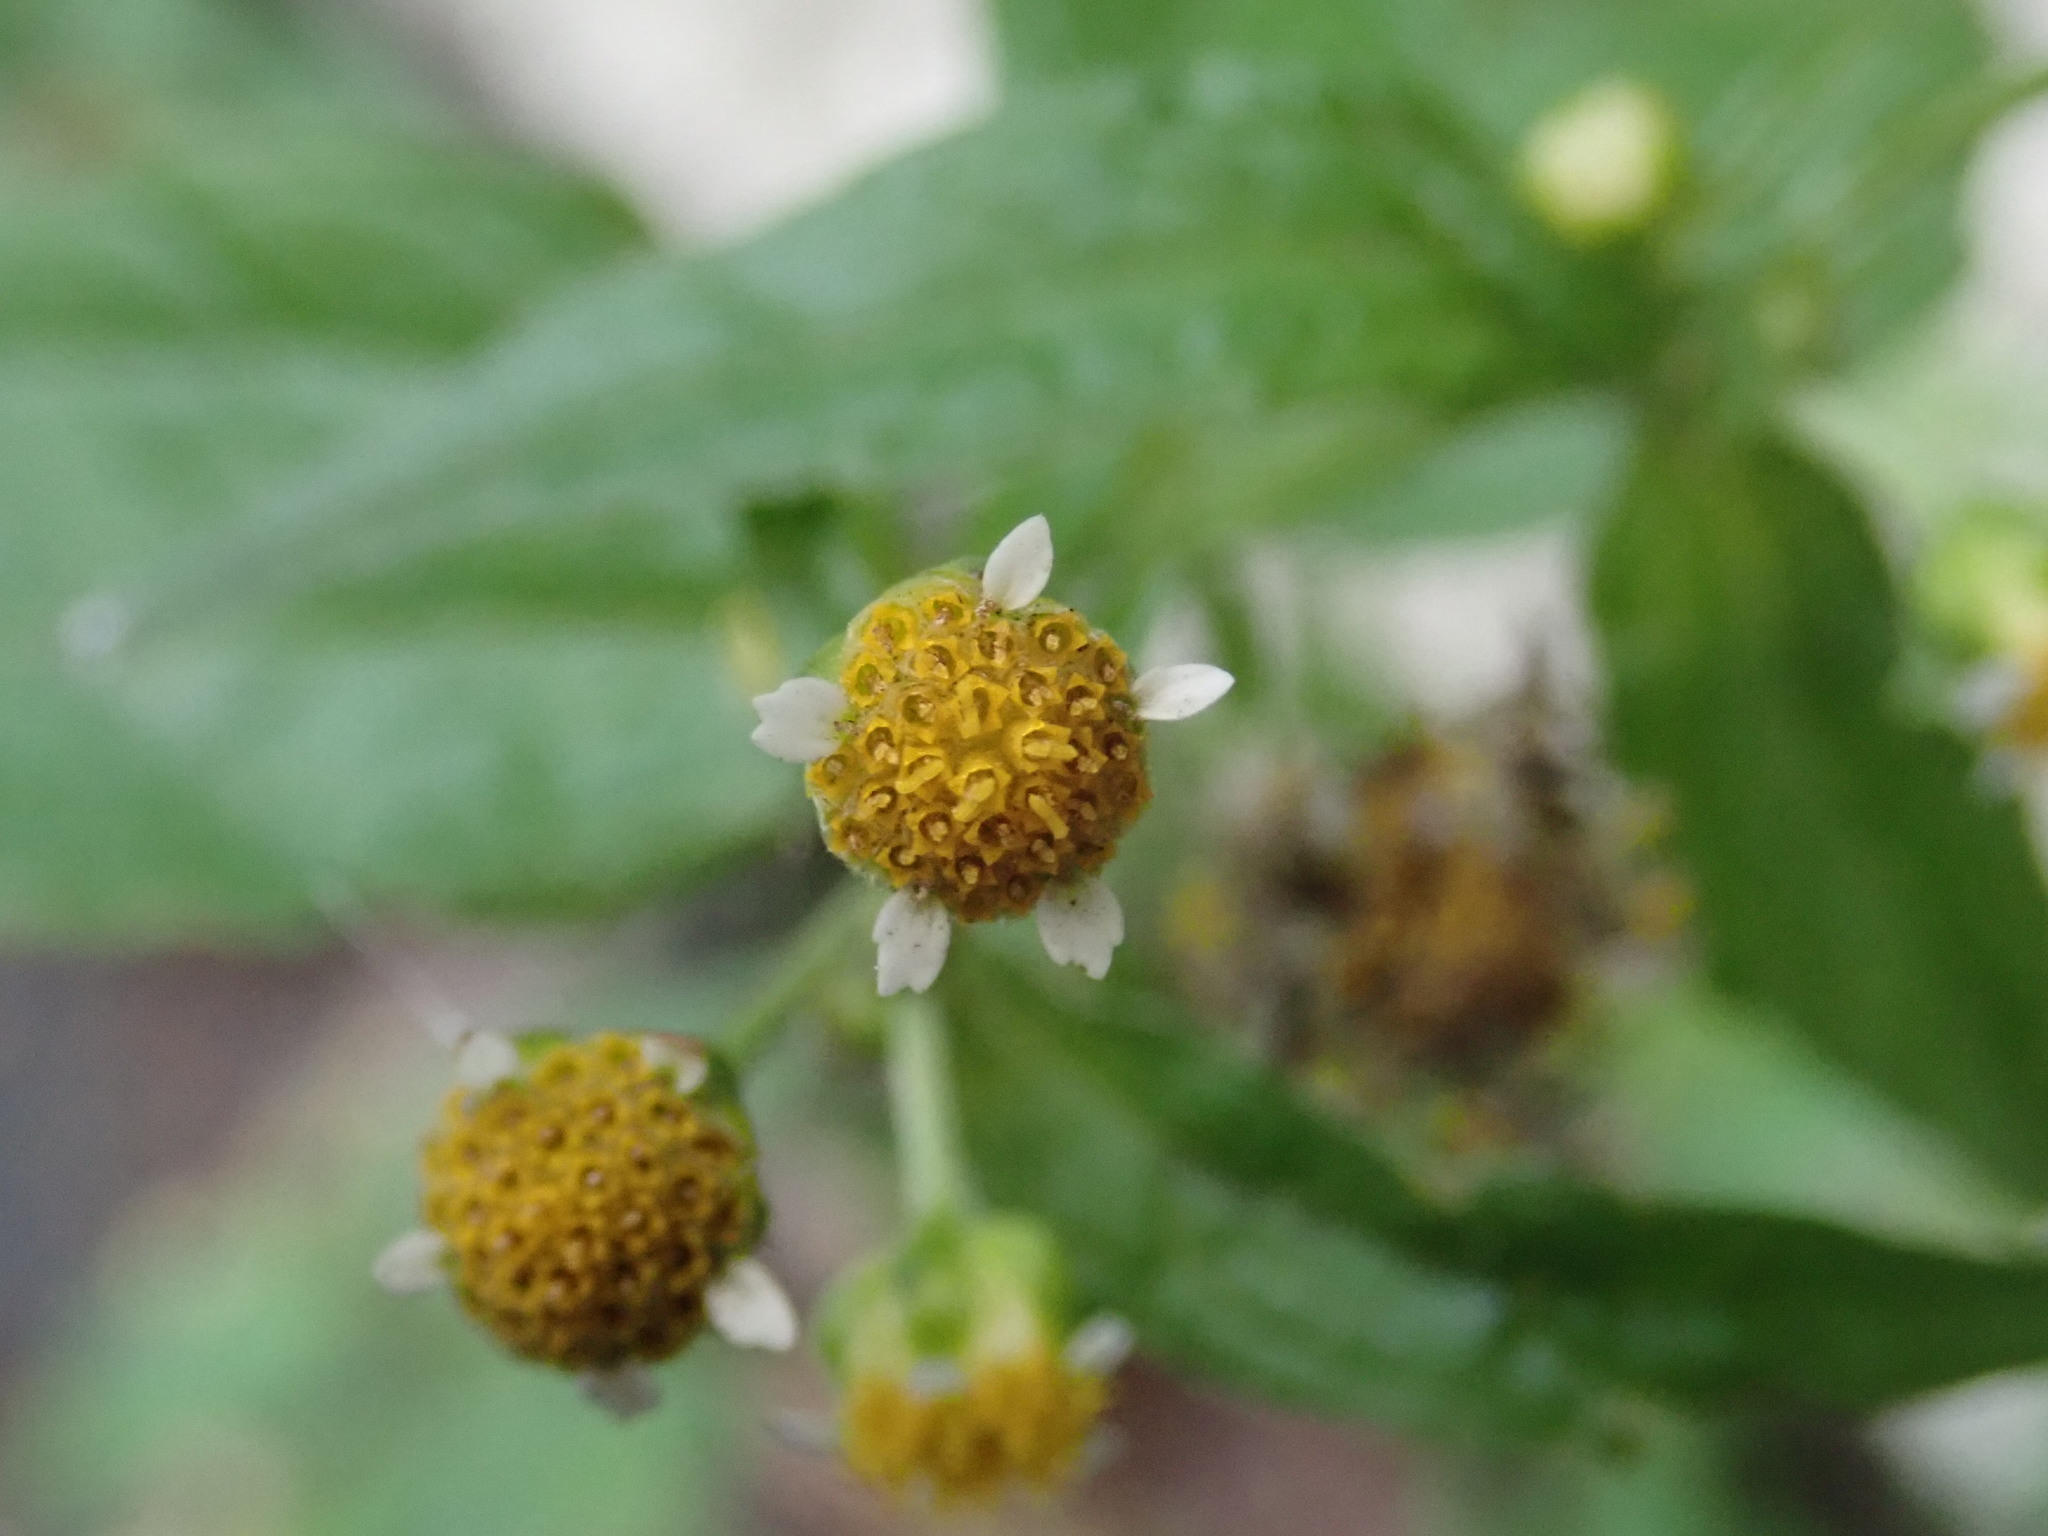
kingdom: Plantae
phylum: Tracheophyta
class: Magnoliopsida
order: Asterales
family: Asteraceae
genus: Galinsoga
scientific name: Galinsoga parviflora
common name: Gallant soldier
